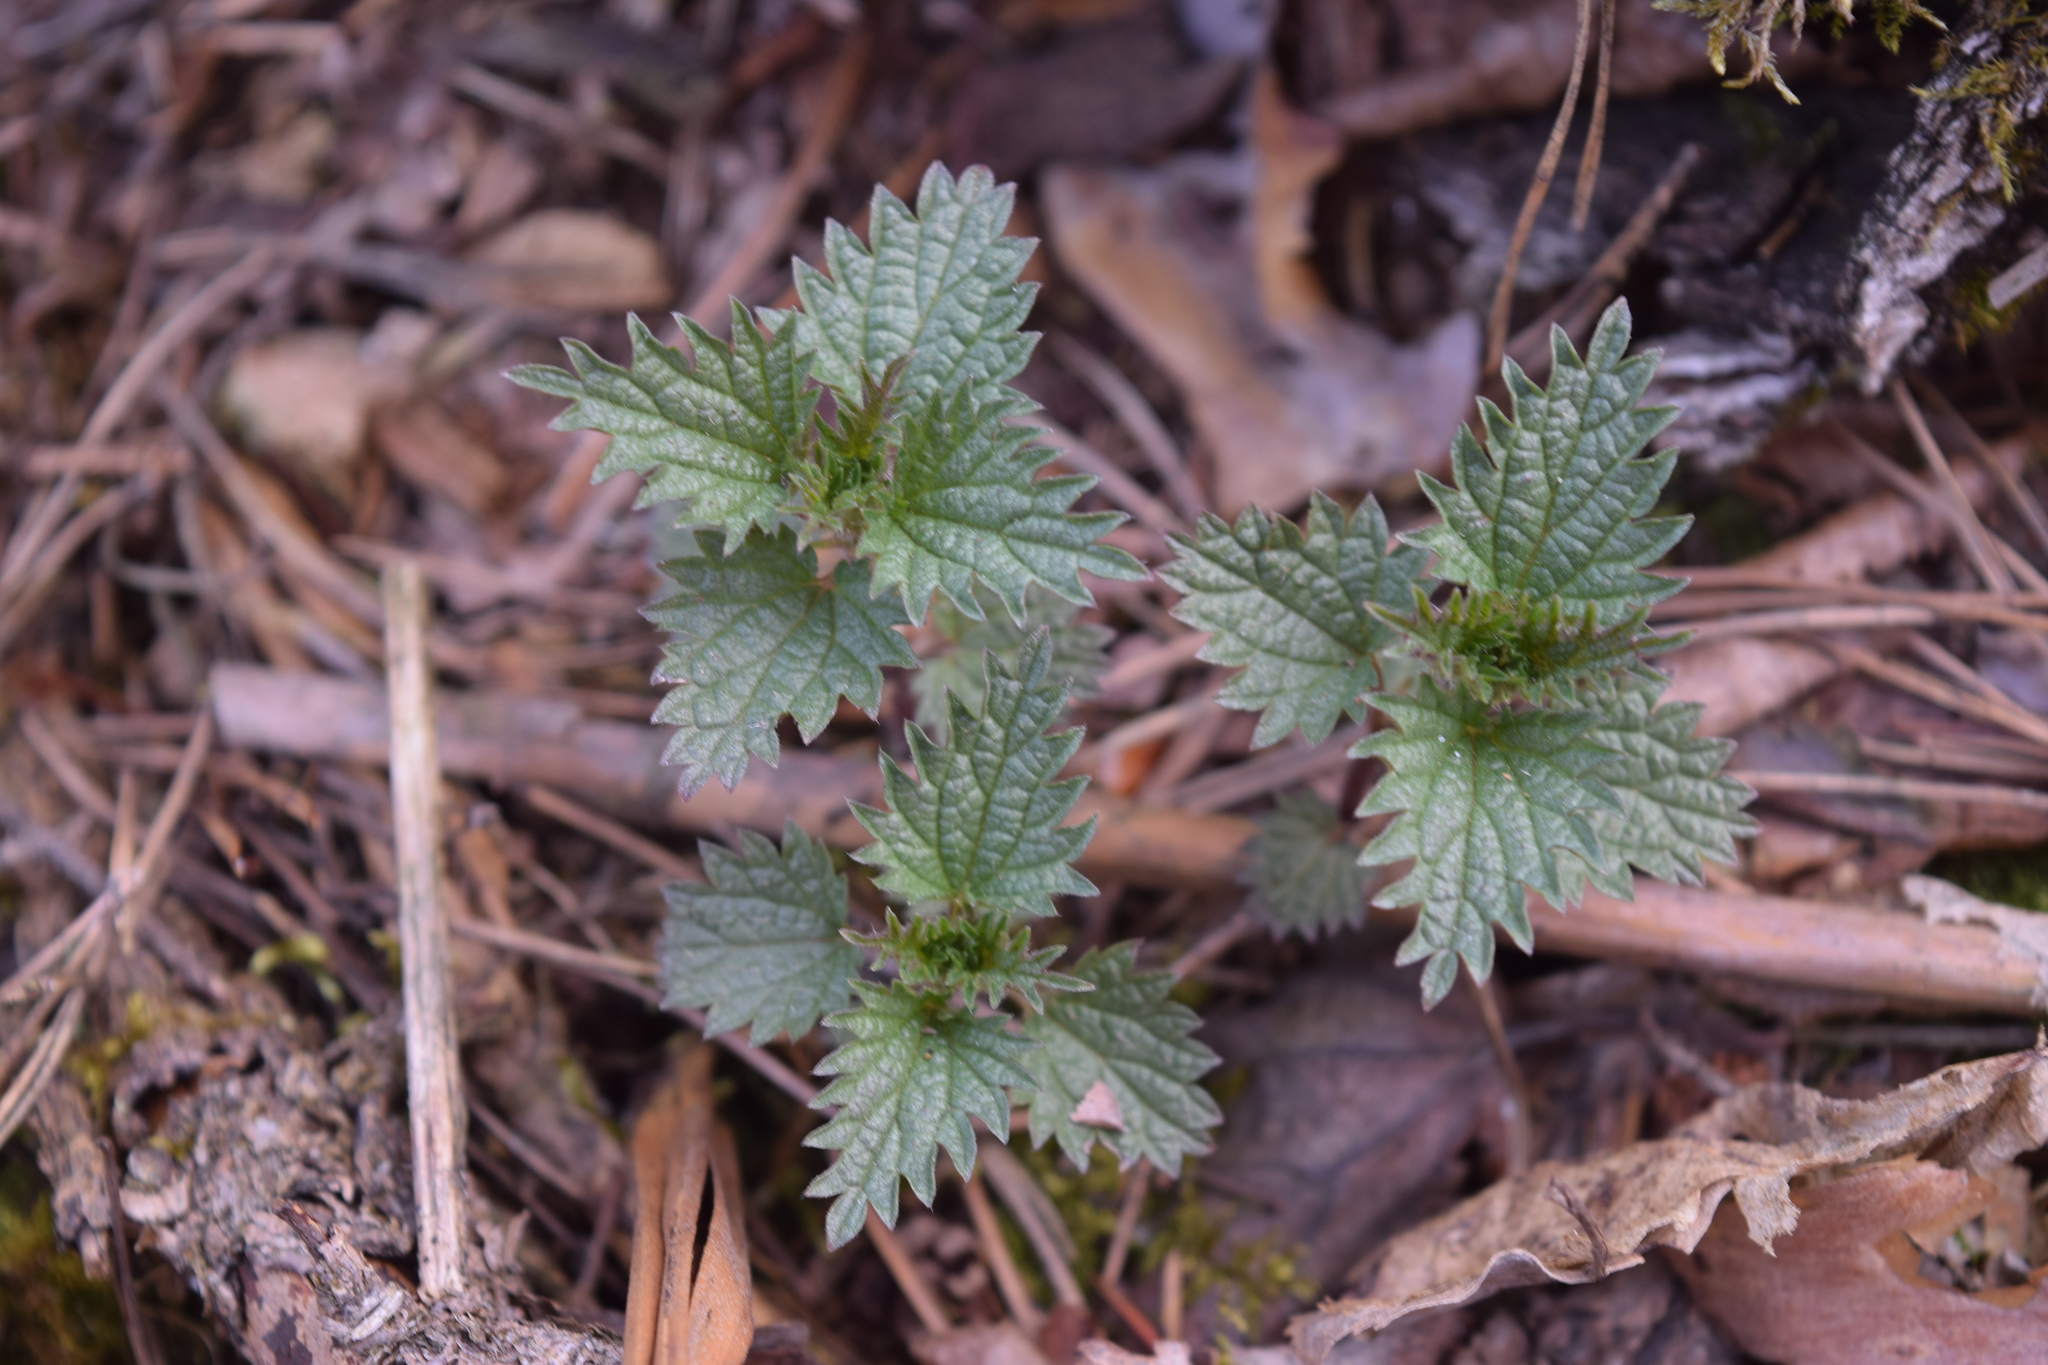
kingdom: Plantae
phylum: Tracheophyta
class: Magnoliopsida
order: Rosales
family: Urticaceae
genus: Urtica
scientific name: Urtica dioica
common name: Common nettle
